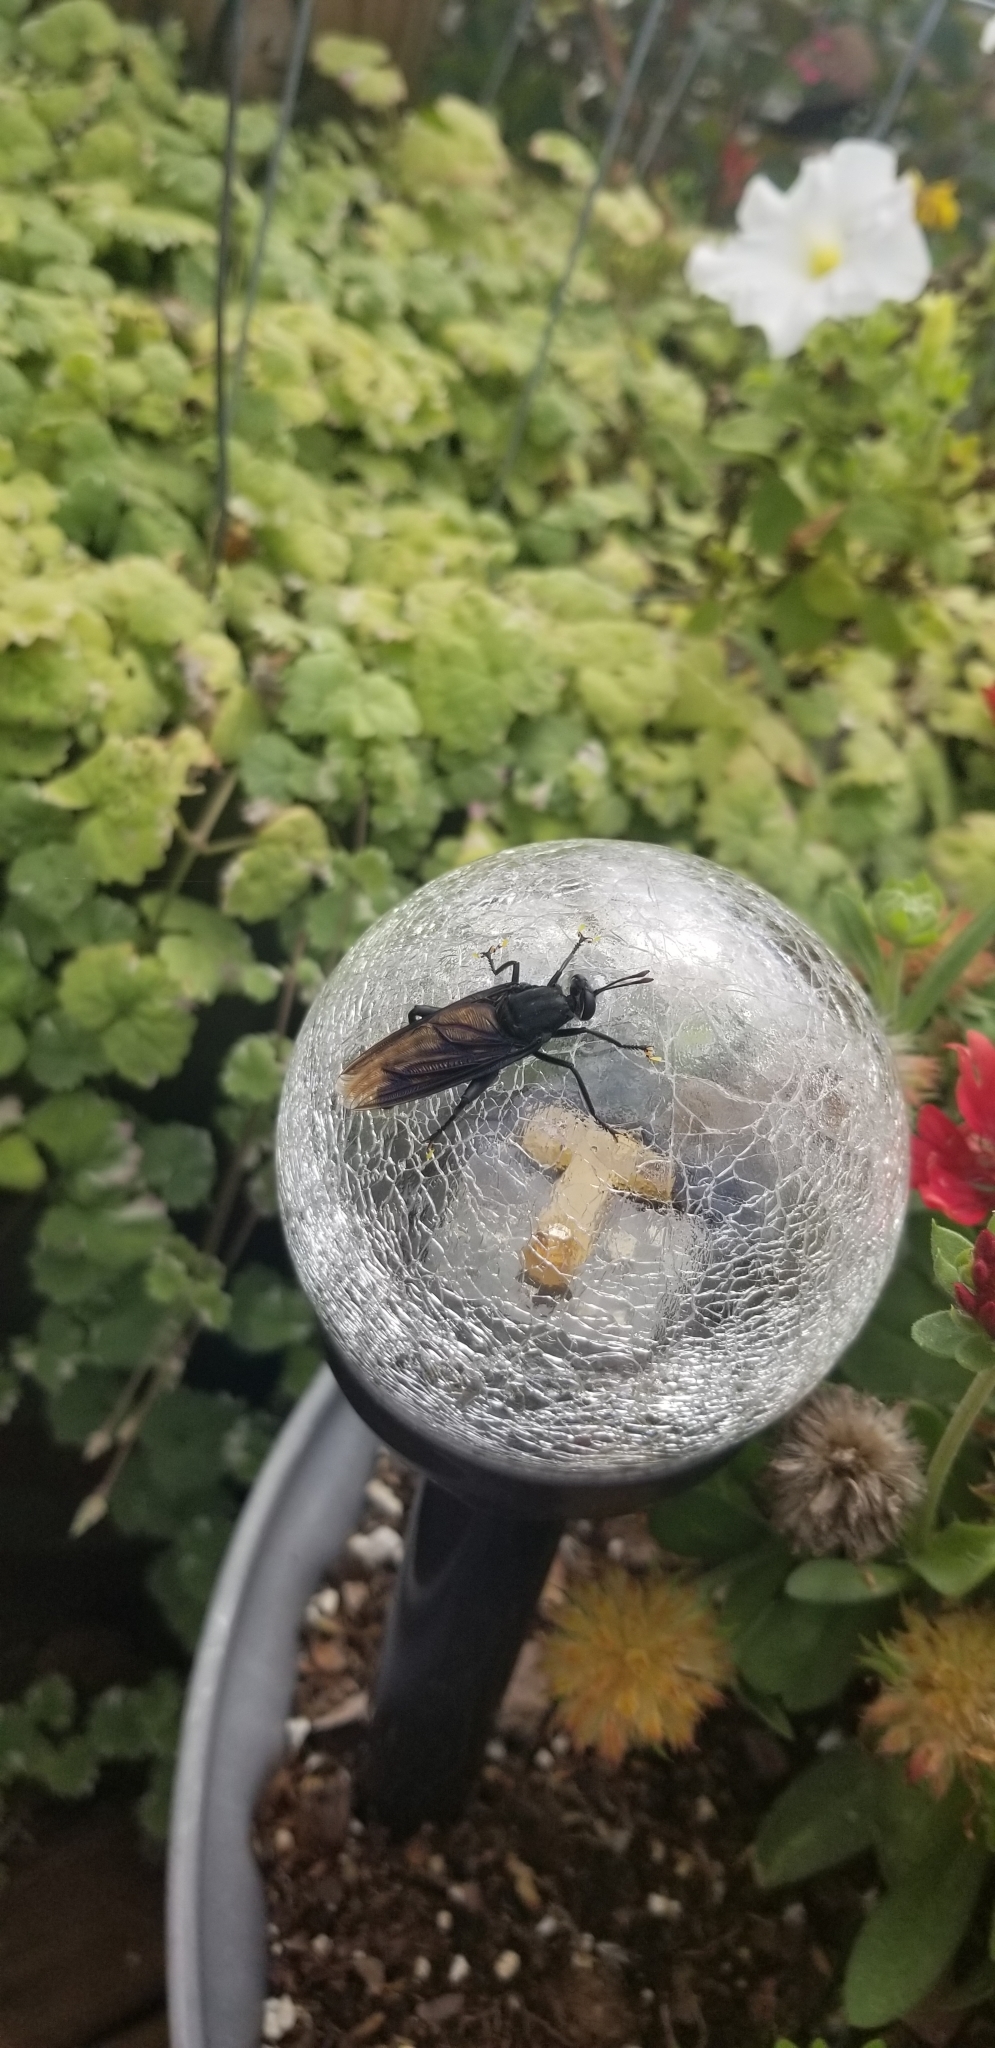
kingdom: Animalia
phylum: Arthropoda
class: Insecta
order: Diptera
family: Mydidae
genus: Mydas
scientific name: Mydas clavatus
